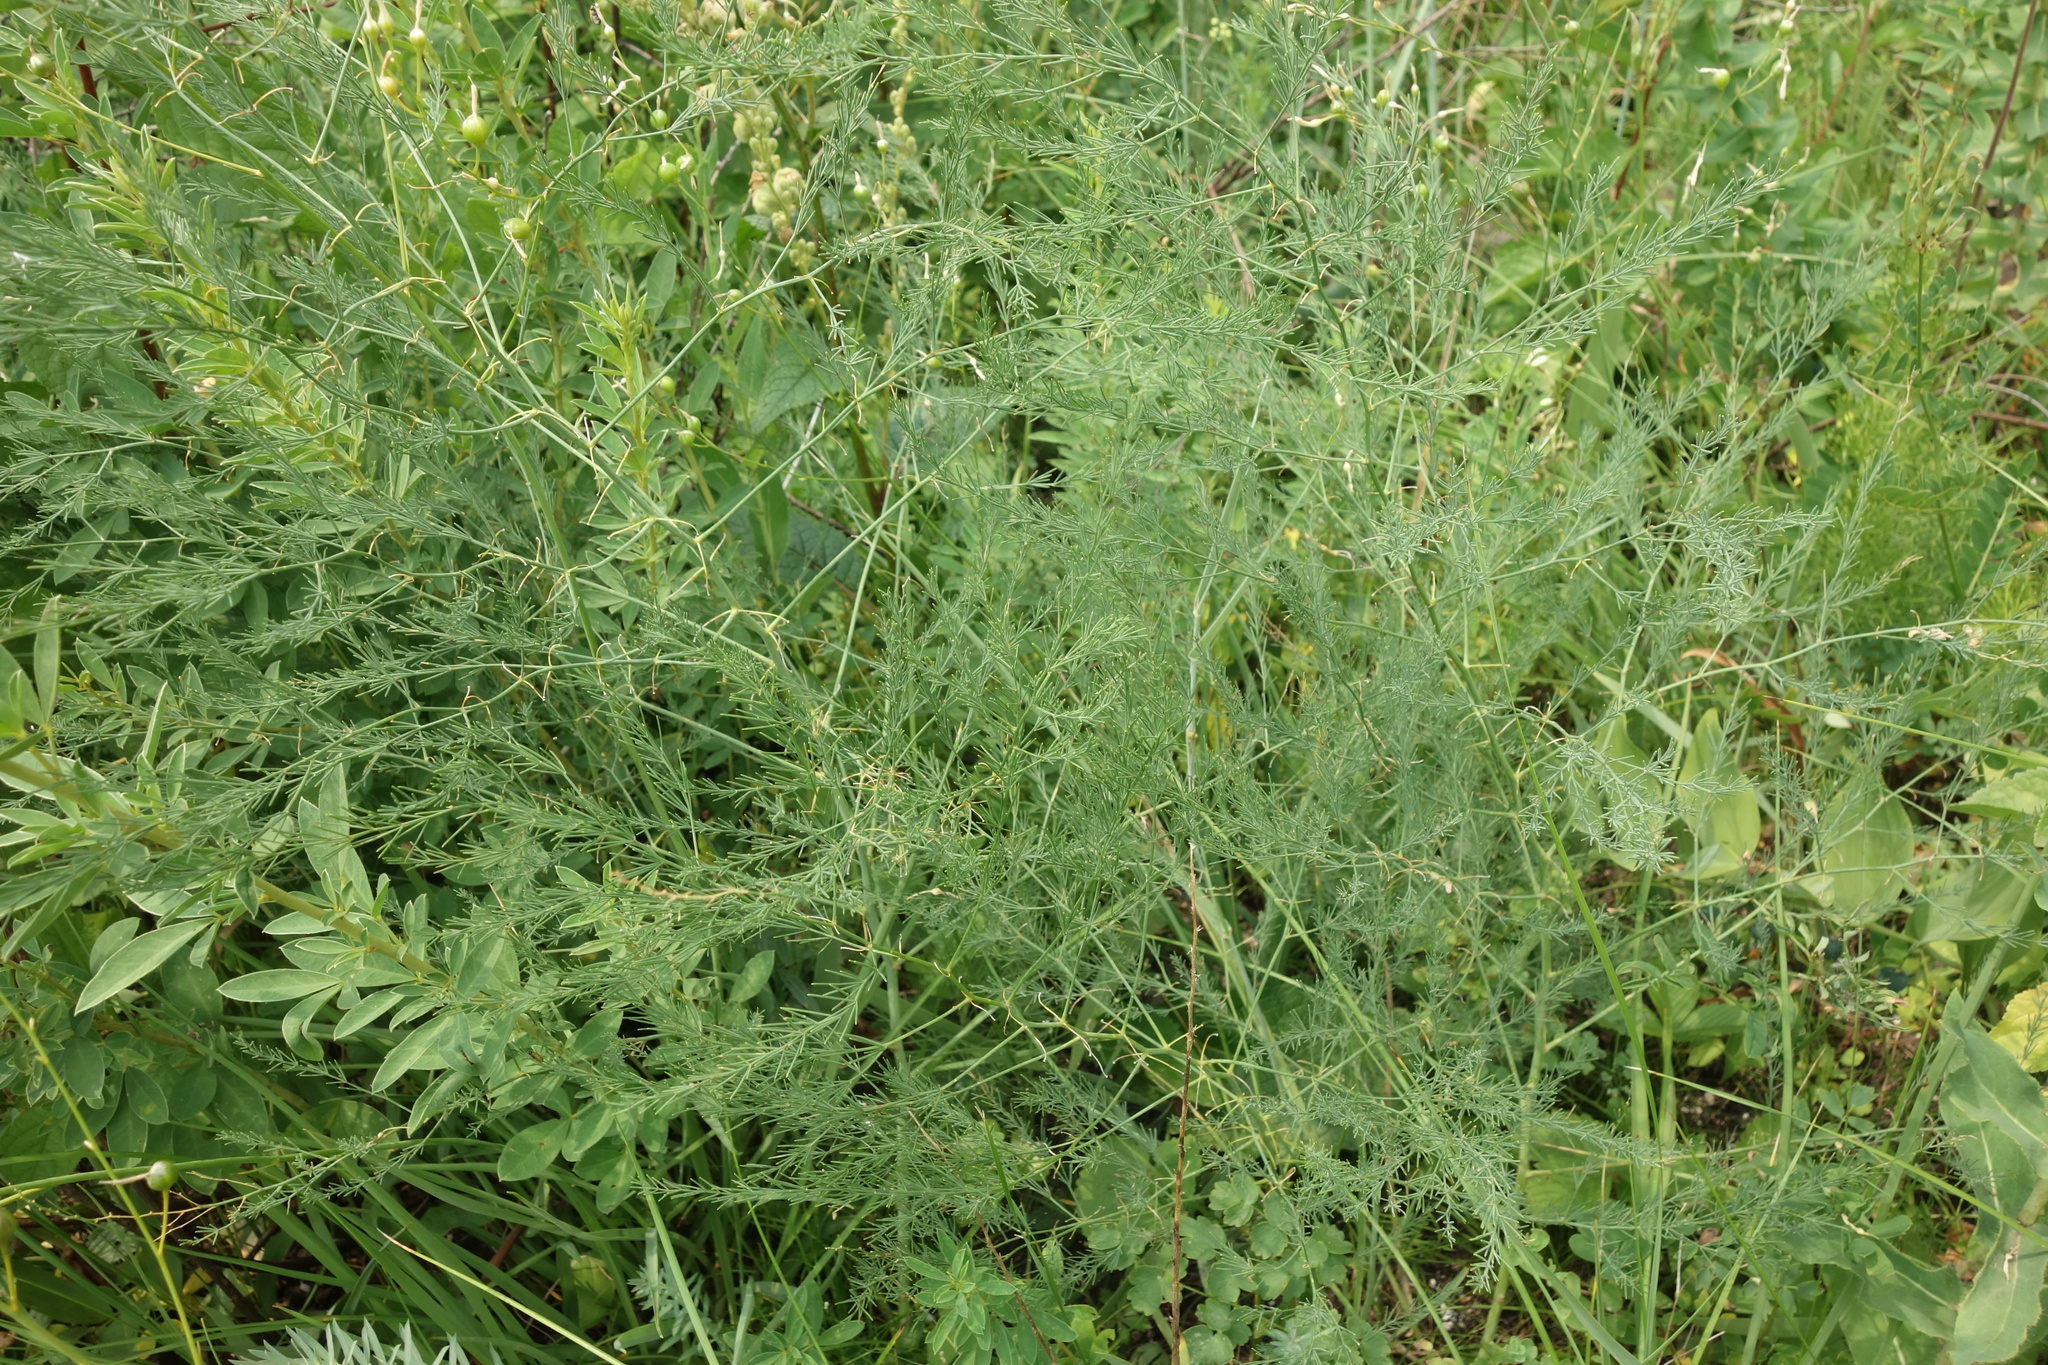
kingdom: Plantae
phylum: Tracheophyta
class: Liliopsida
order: Asparagales
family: Asparagaceae
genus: Asparagus
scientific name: Asparagus officinalis
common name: Garden asparagus
